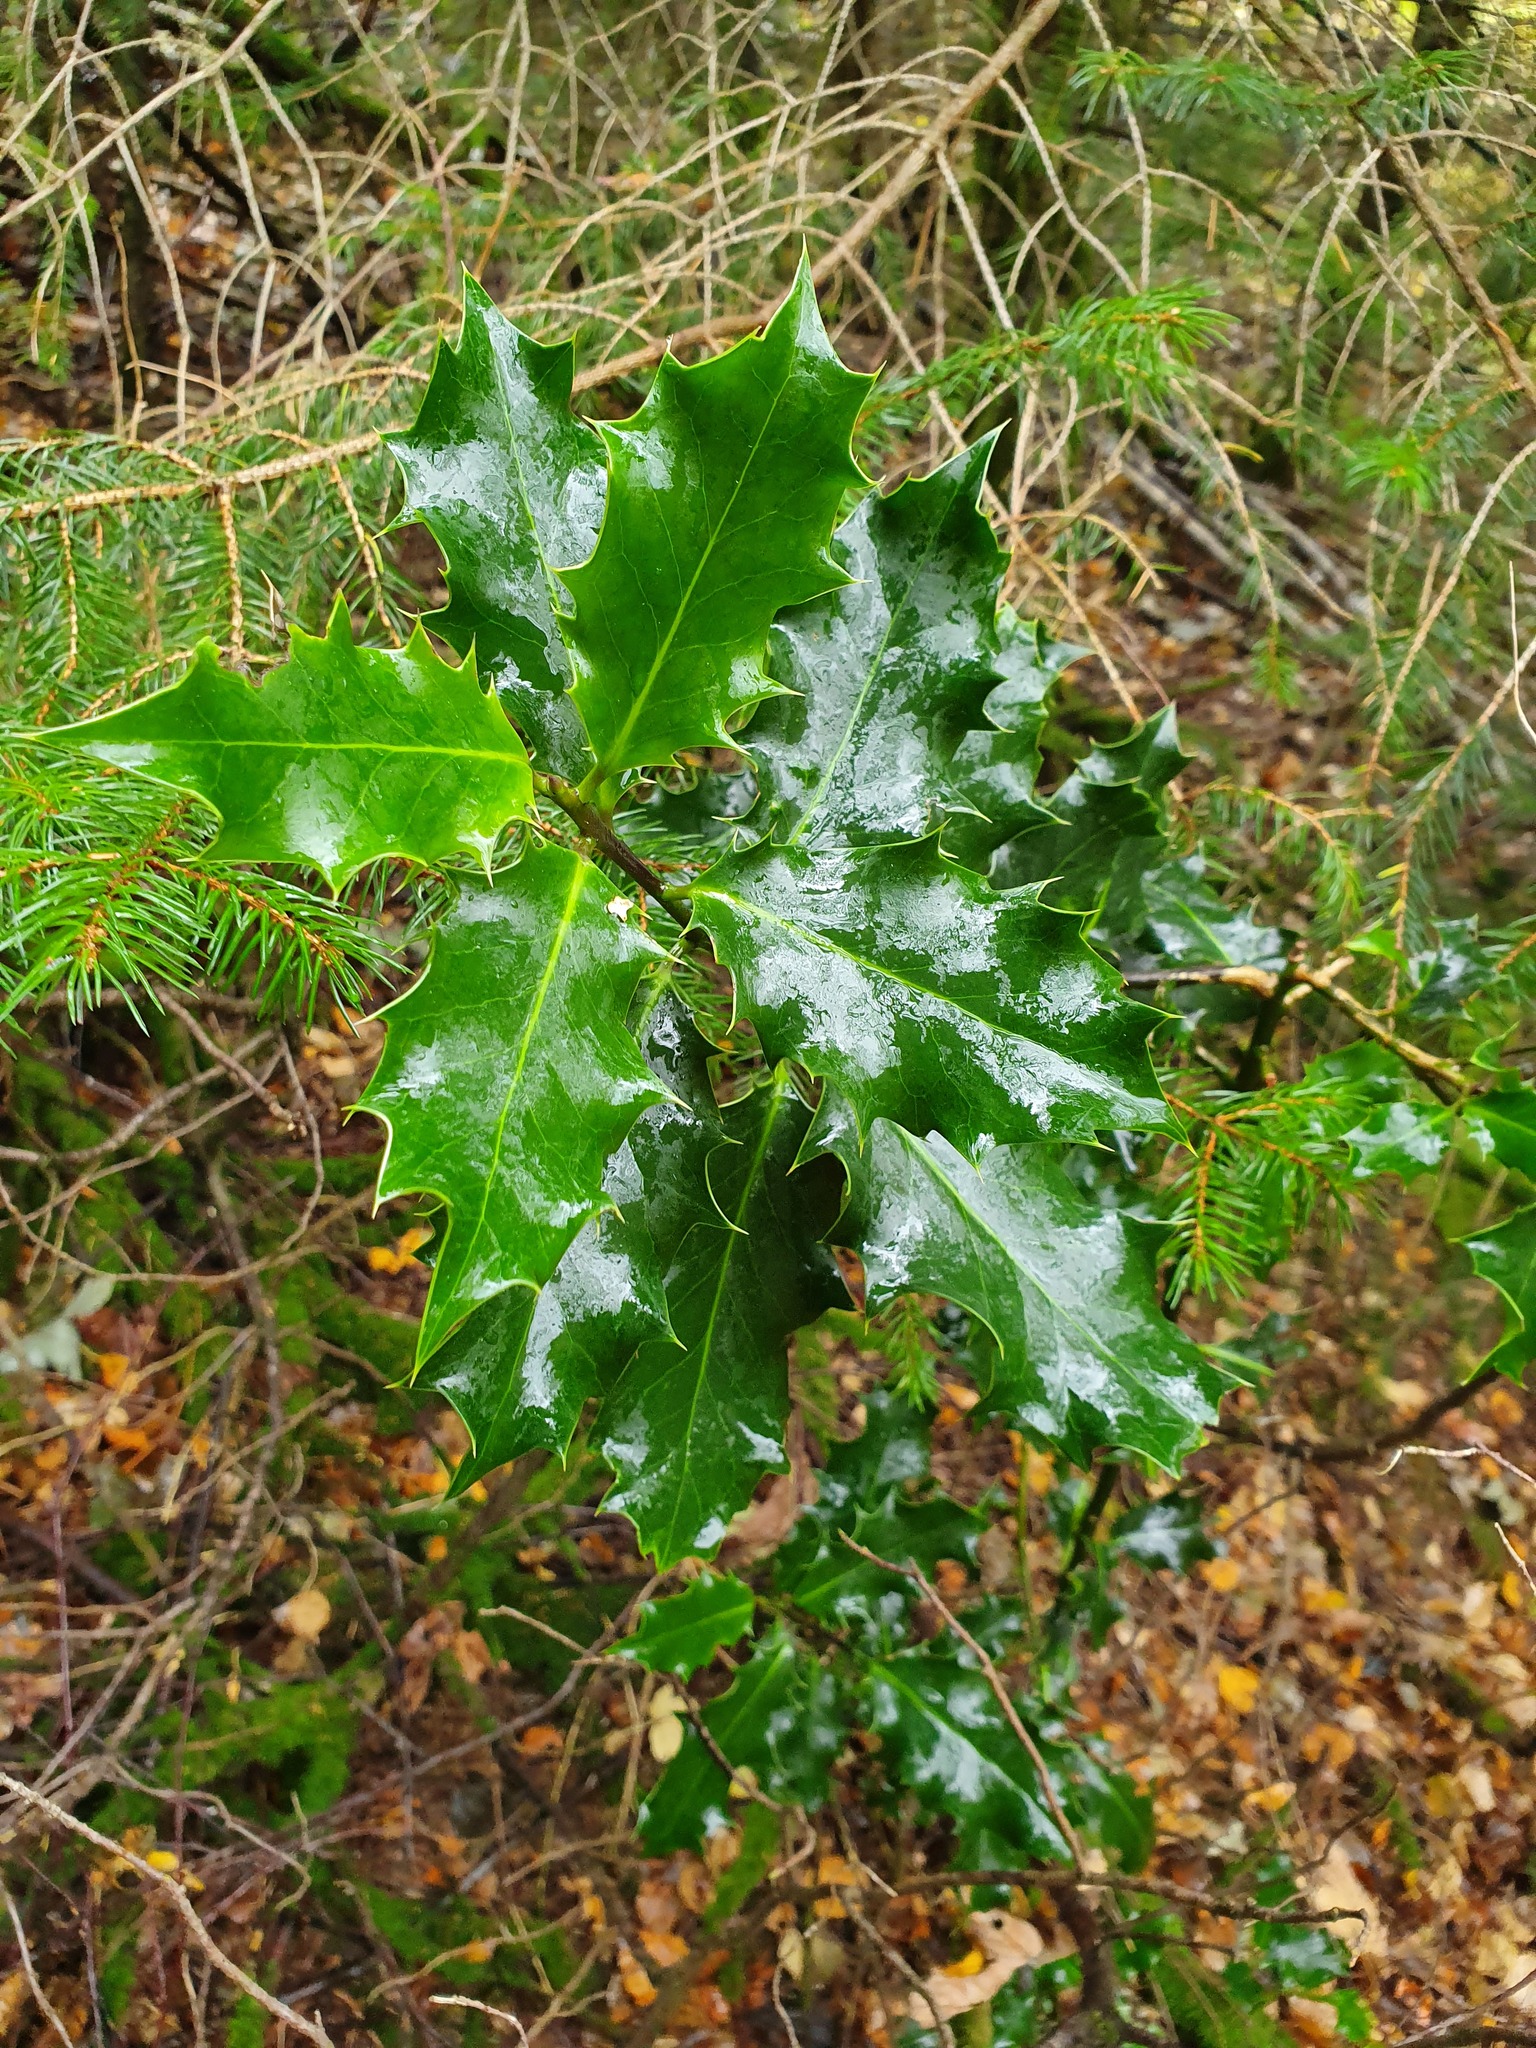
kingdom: Plantae
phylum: Tracheophyta
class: Magnoliopsida
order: Aquifoliales
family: Aquifoliaceae
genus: Ilex
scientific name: Ilex aquifolium
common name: English holly
